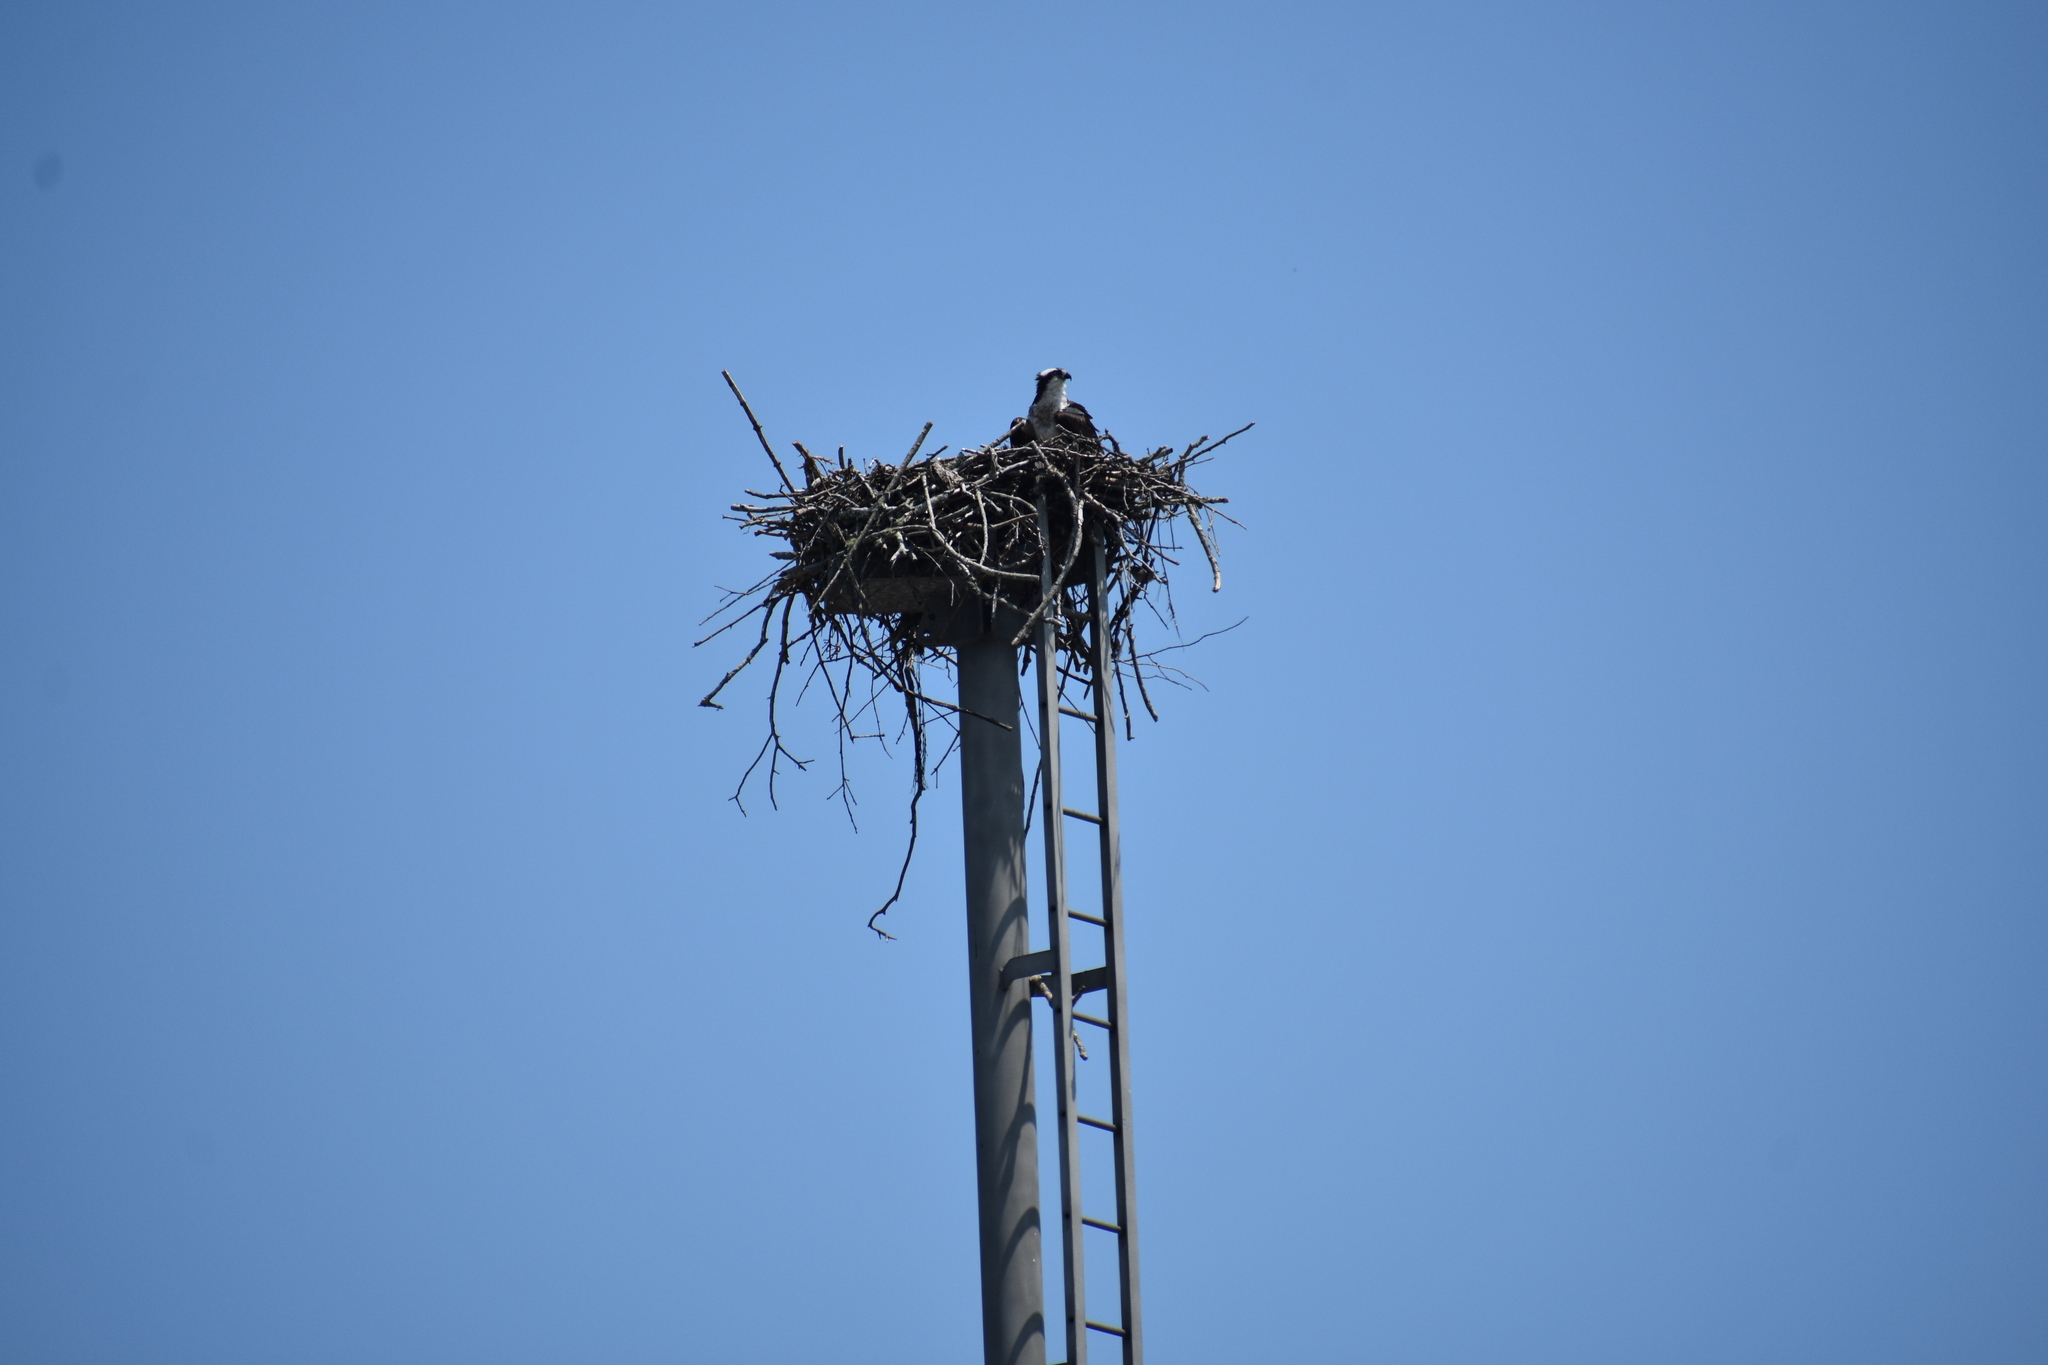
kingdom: Animalia
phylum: Chordata
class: Aves
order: Accipitriformes
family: Pandionidae
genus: Pandion
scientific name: Pandion haliaetus
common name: Osprey
